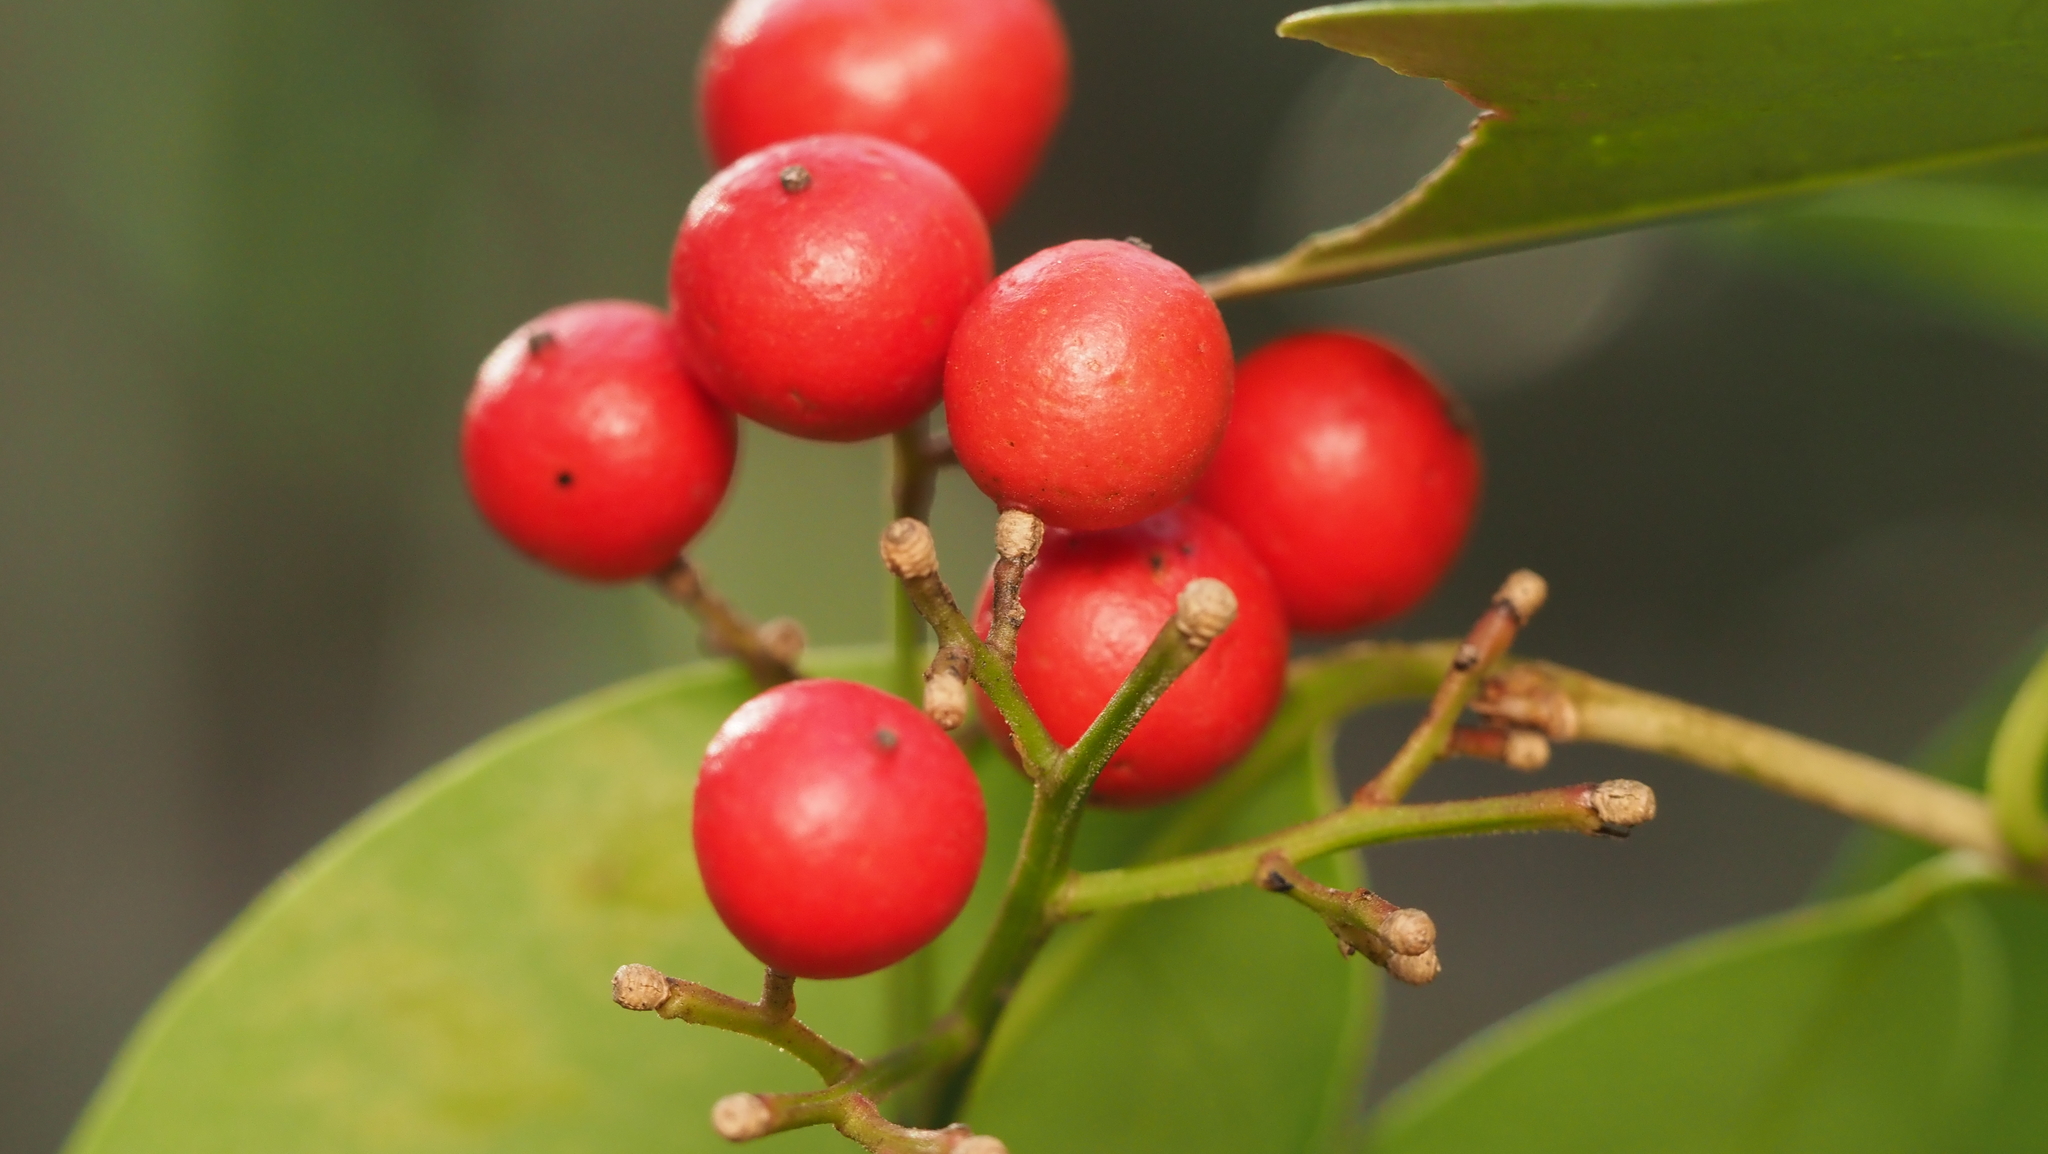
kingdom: Plantae
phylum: Tracheophyta
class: Magnoliopsida
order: Ranunculales
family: Berberidaceae
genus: Nandina
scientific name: Nandina domestica
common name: Sacred bamboo
